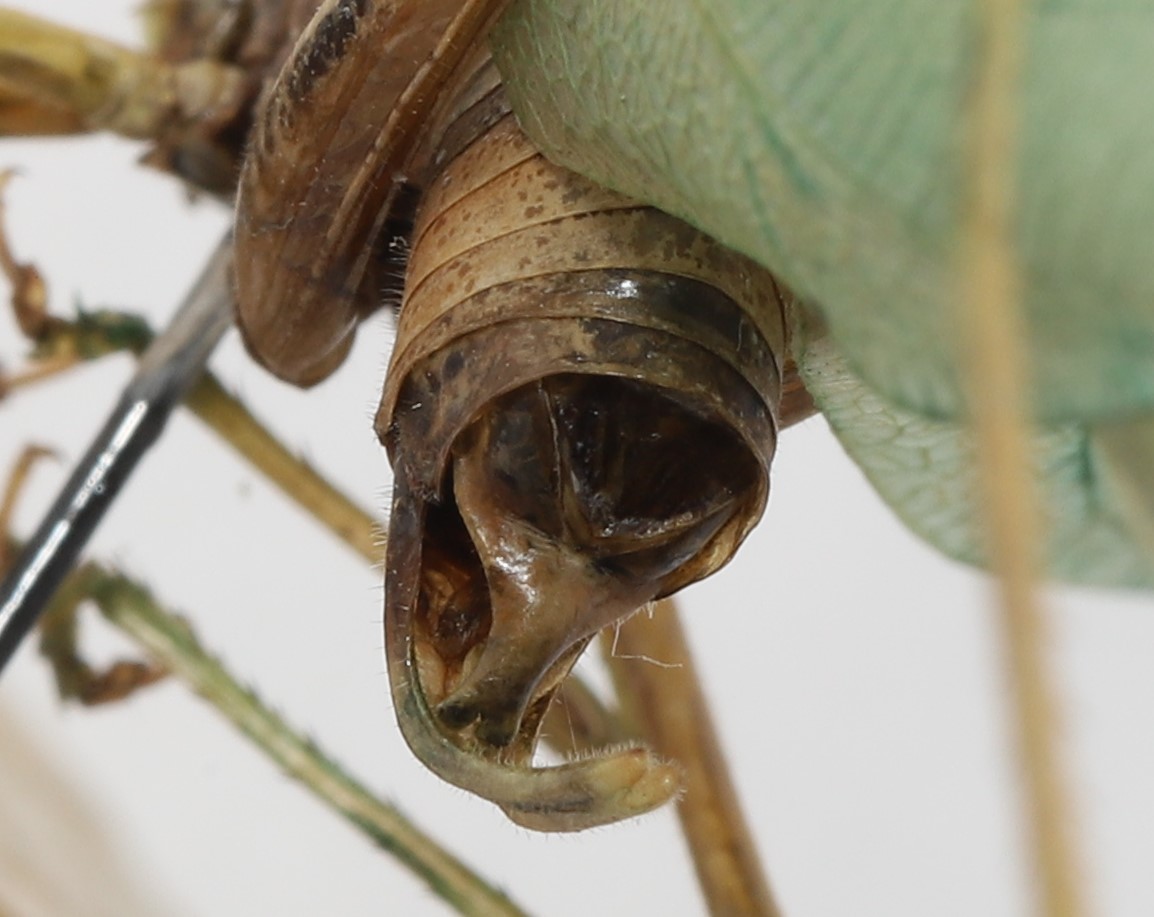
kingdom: Animalia
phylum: Arthropoda
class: Insecta
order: Orthoptera
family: Tettigoniidae
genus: Scudderia
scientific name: Scudderia pistillata
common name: Broad-winged bush-katydid
